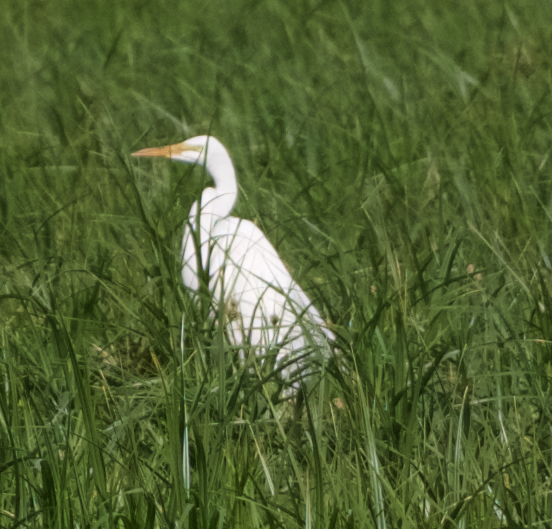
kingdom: Animalia
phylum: Chordata
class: Aves
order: Pelecaniformes
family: Ardeidae
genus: Ardea
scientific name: Ardea alba
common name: Great egret
